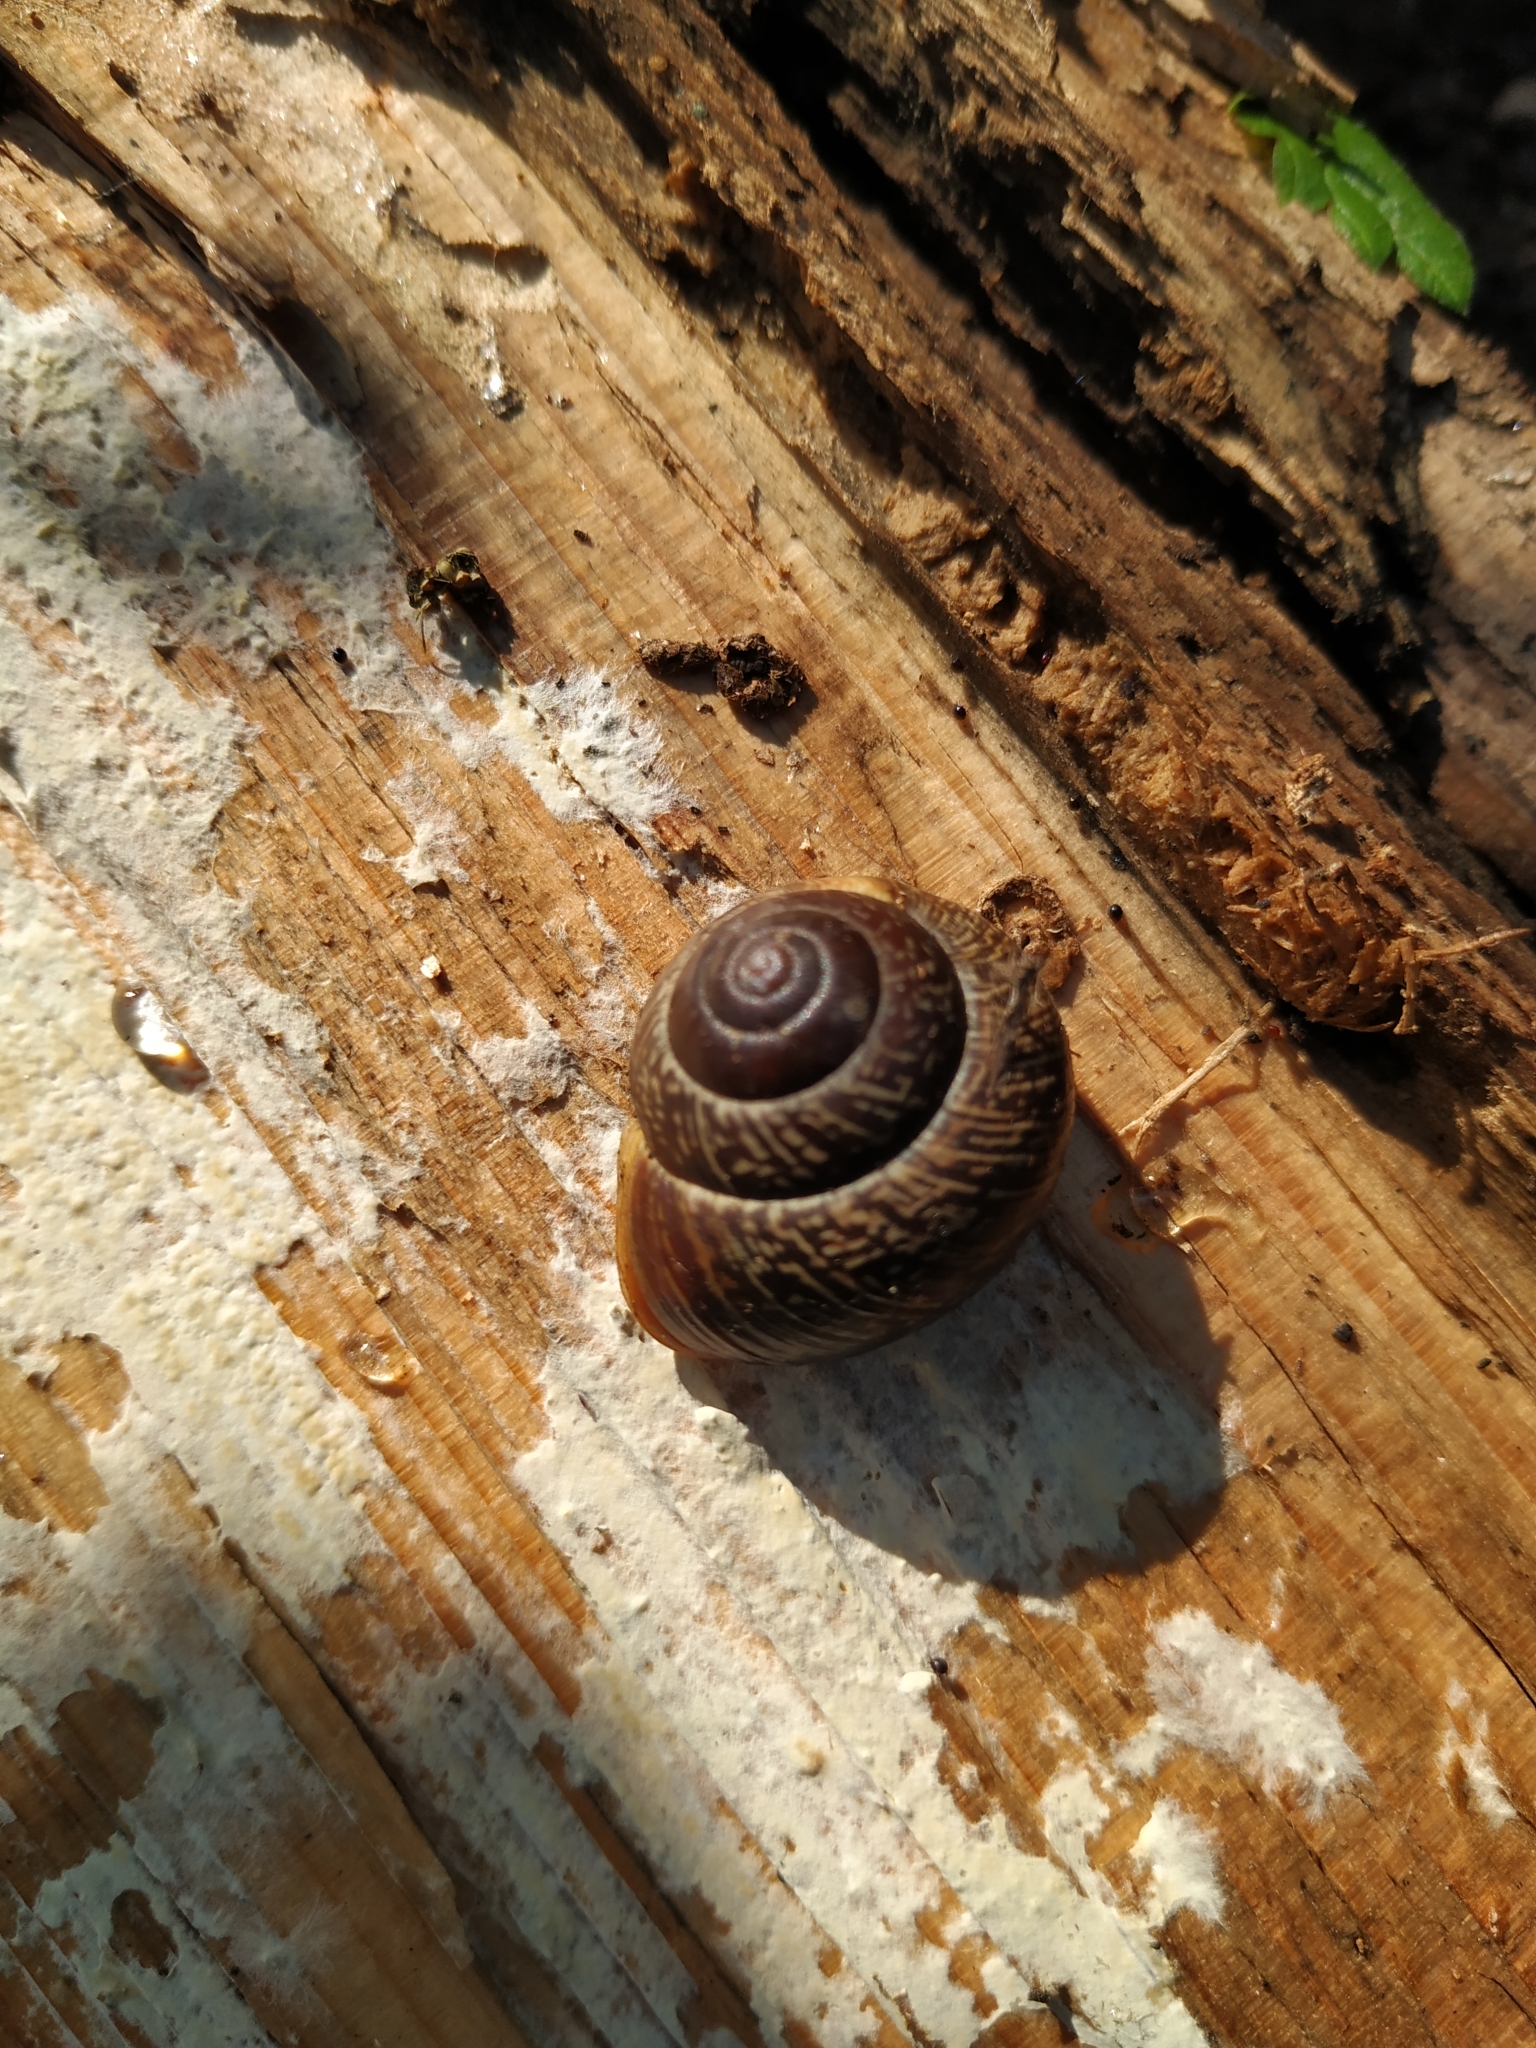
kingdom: Animalia
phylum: Mollusca
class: Gastropoda
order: Stylommatophora
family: Helicidae
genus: Arianta
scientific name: Arianta arbustorum
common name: Copse snail
